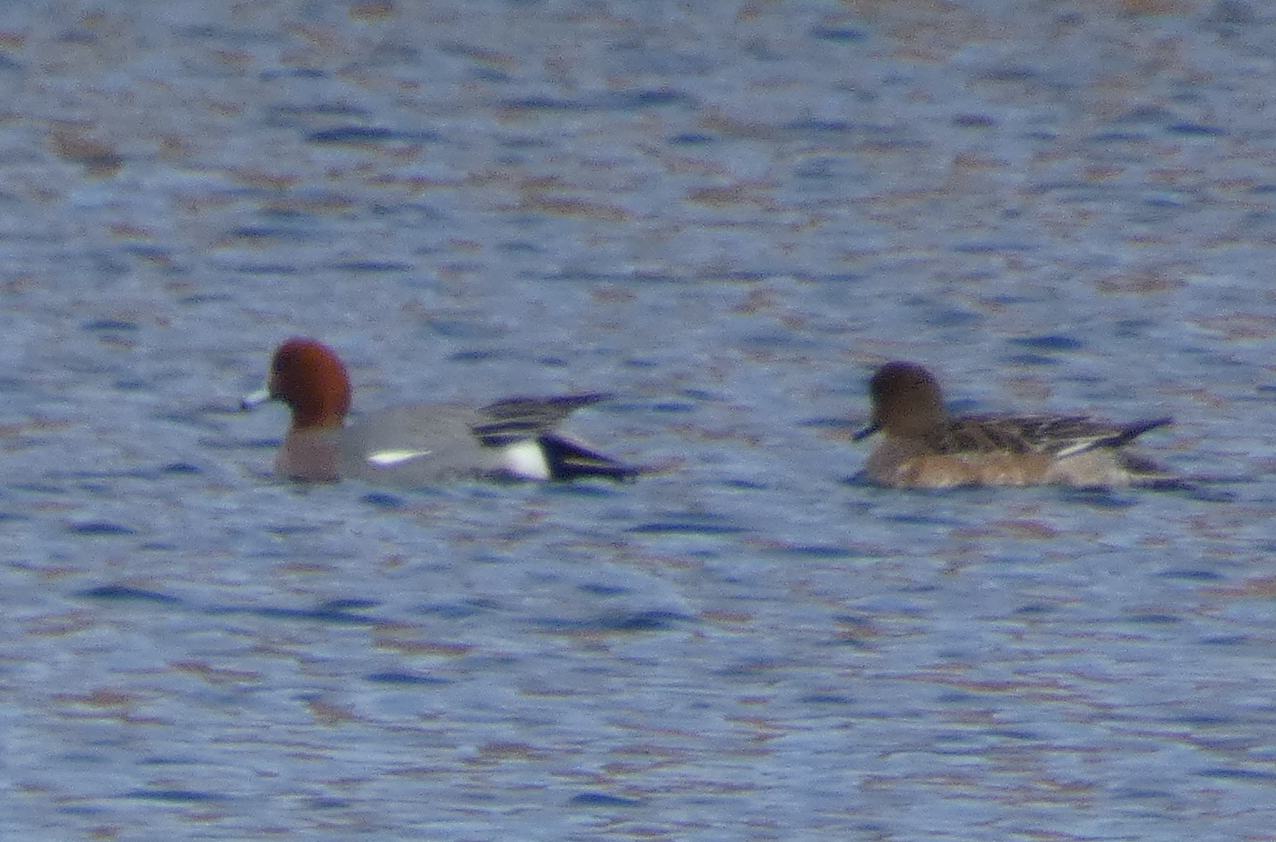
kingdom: Animalia
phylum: Chordata
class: Aves
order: Anseriformes
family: Anatidae
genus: Mareca
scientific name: Mareca penelope
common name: Eurasian wigeon
